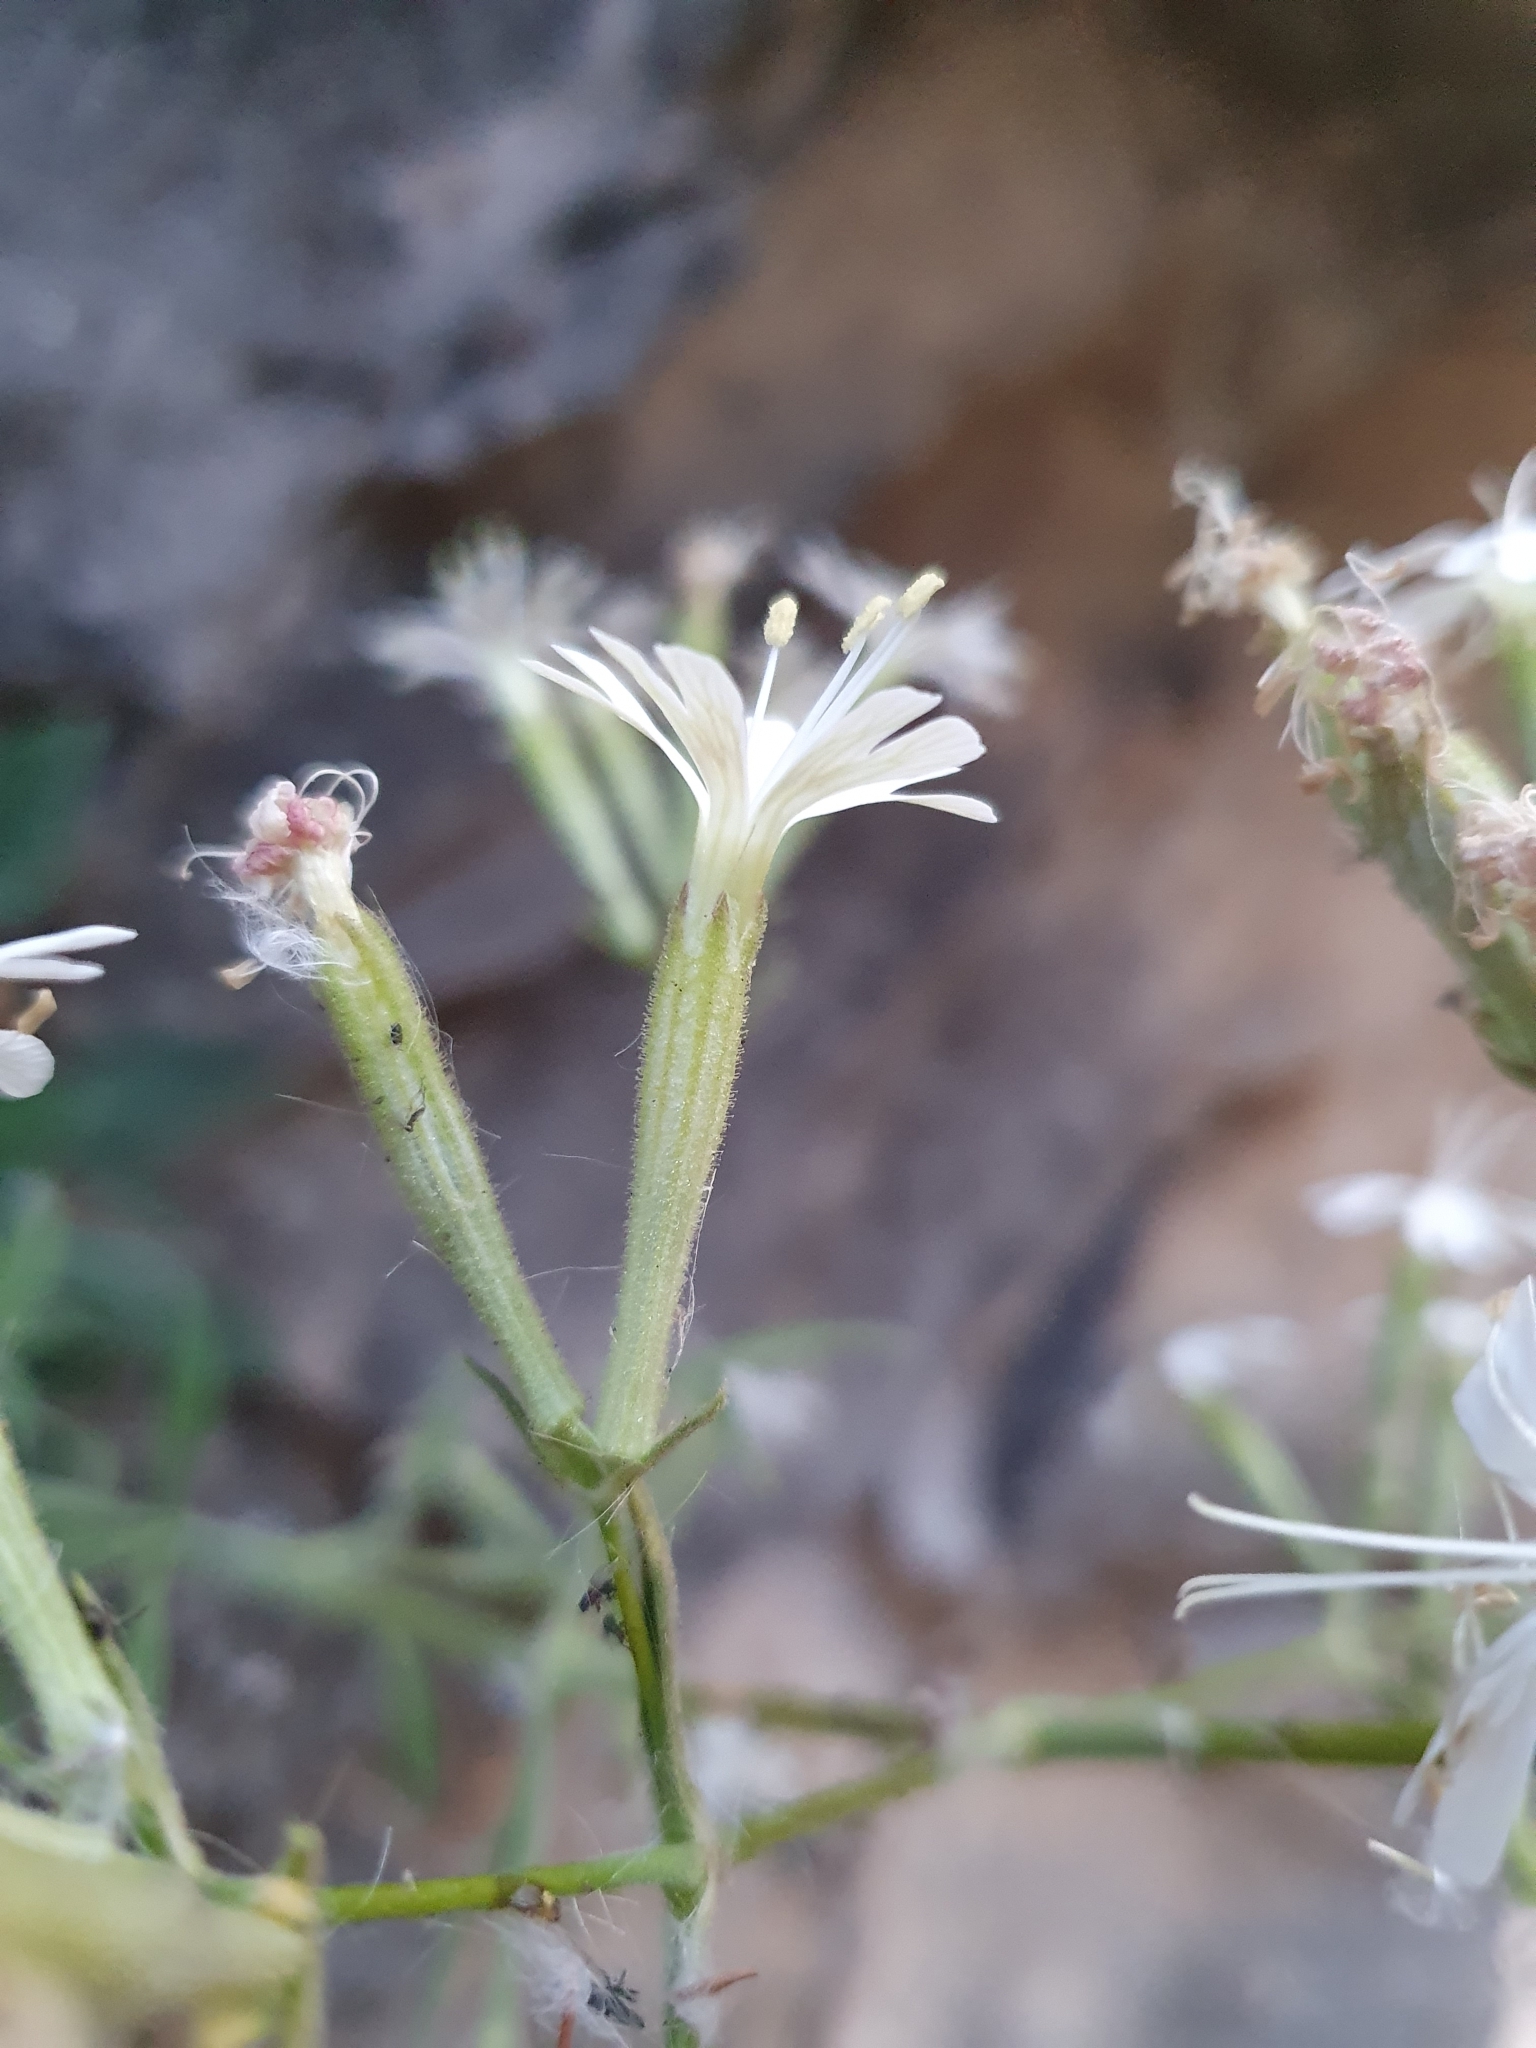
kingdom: Plantae
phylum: Tracheophyta
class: Magnoliopsida
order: Caryophyllales
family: Caryophyllaceae
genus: Silene
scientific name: Silene andryalifolia
